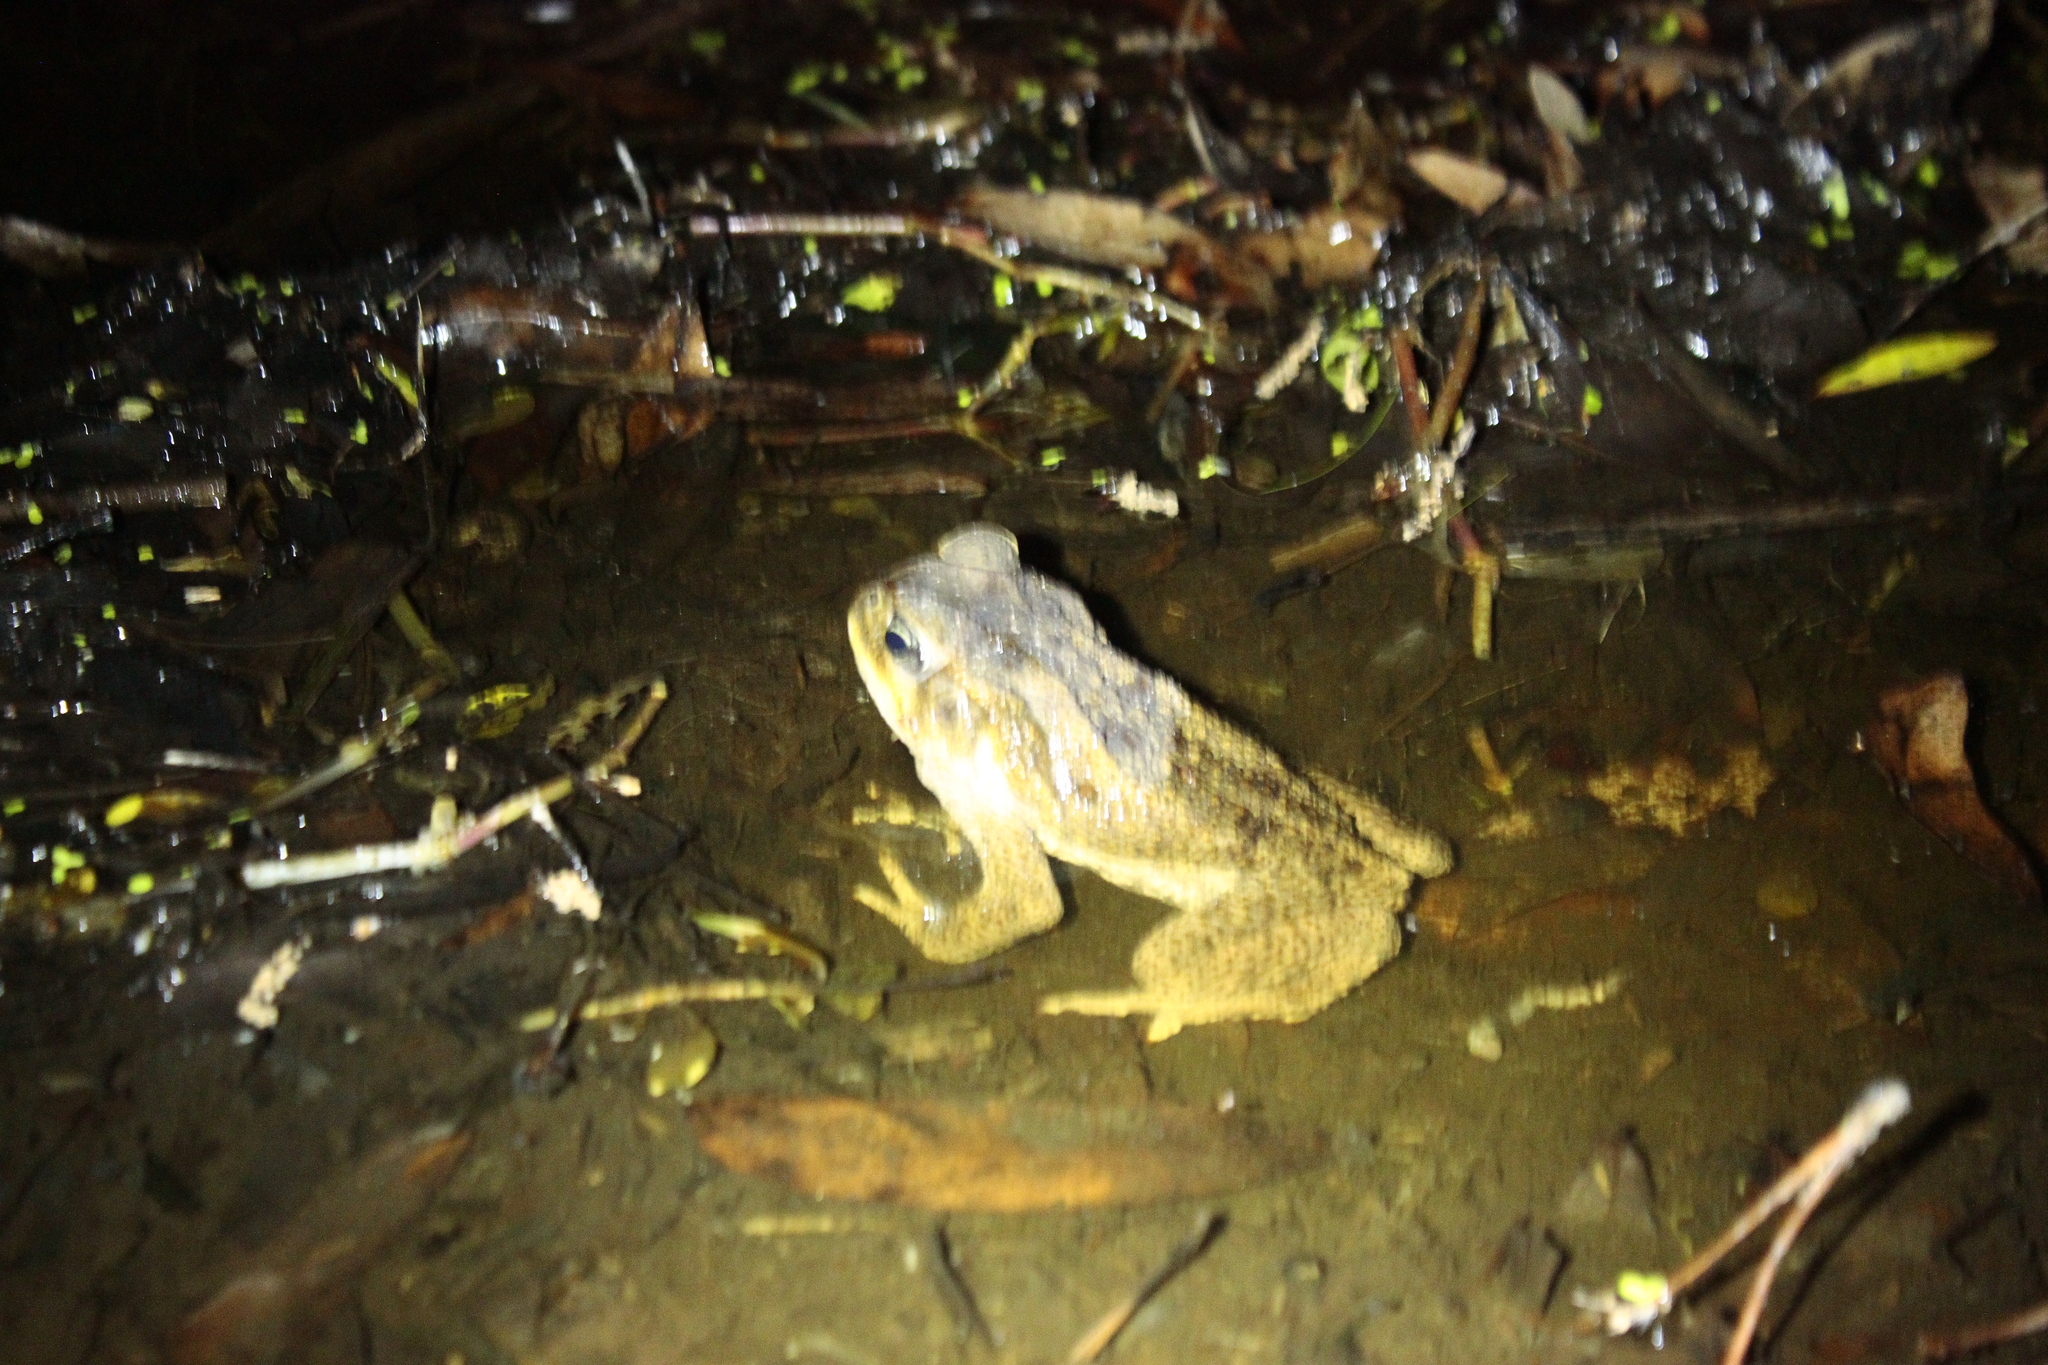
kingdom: Animalia
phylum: Chordata
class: Amphibia
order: Anura
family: Bufonidae
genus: Rhinella
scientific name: Rhinella marina
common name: Cane toad
